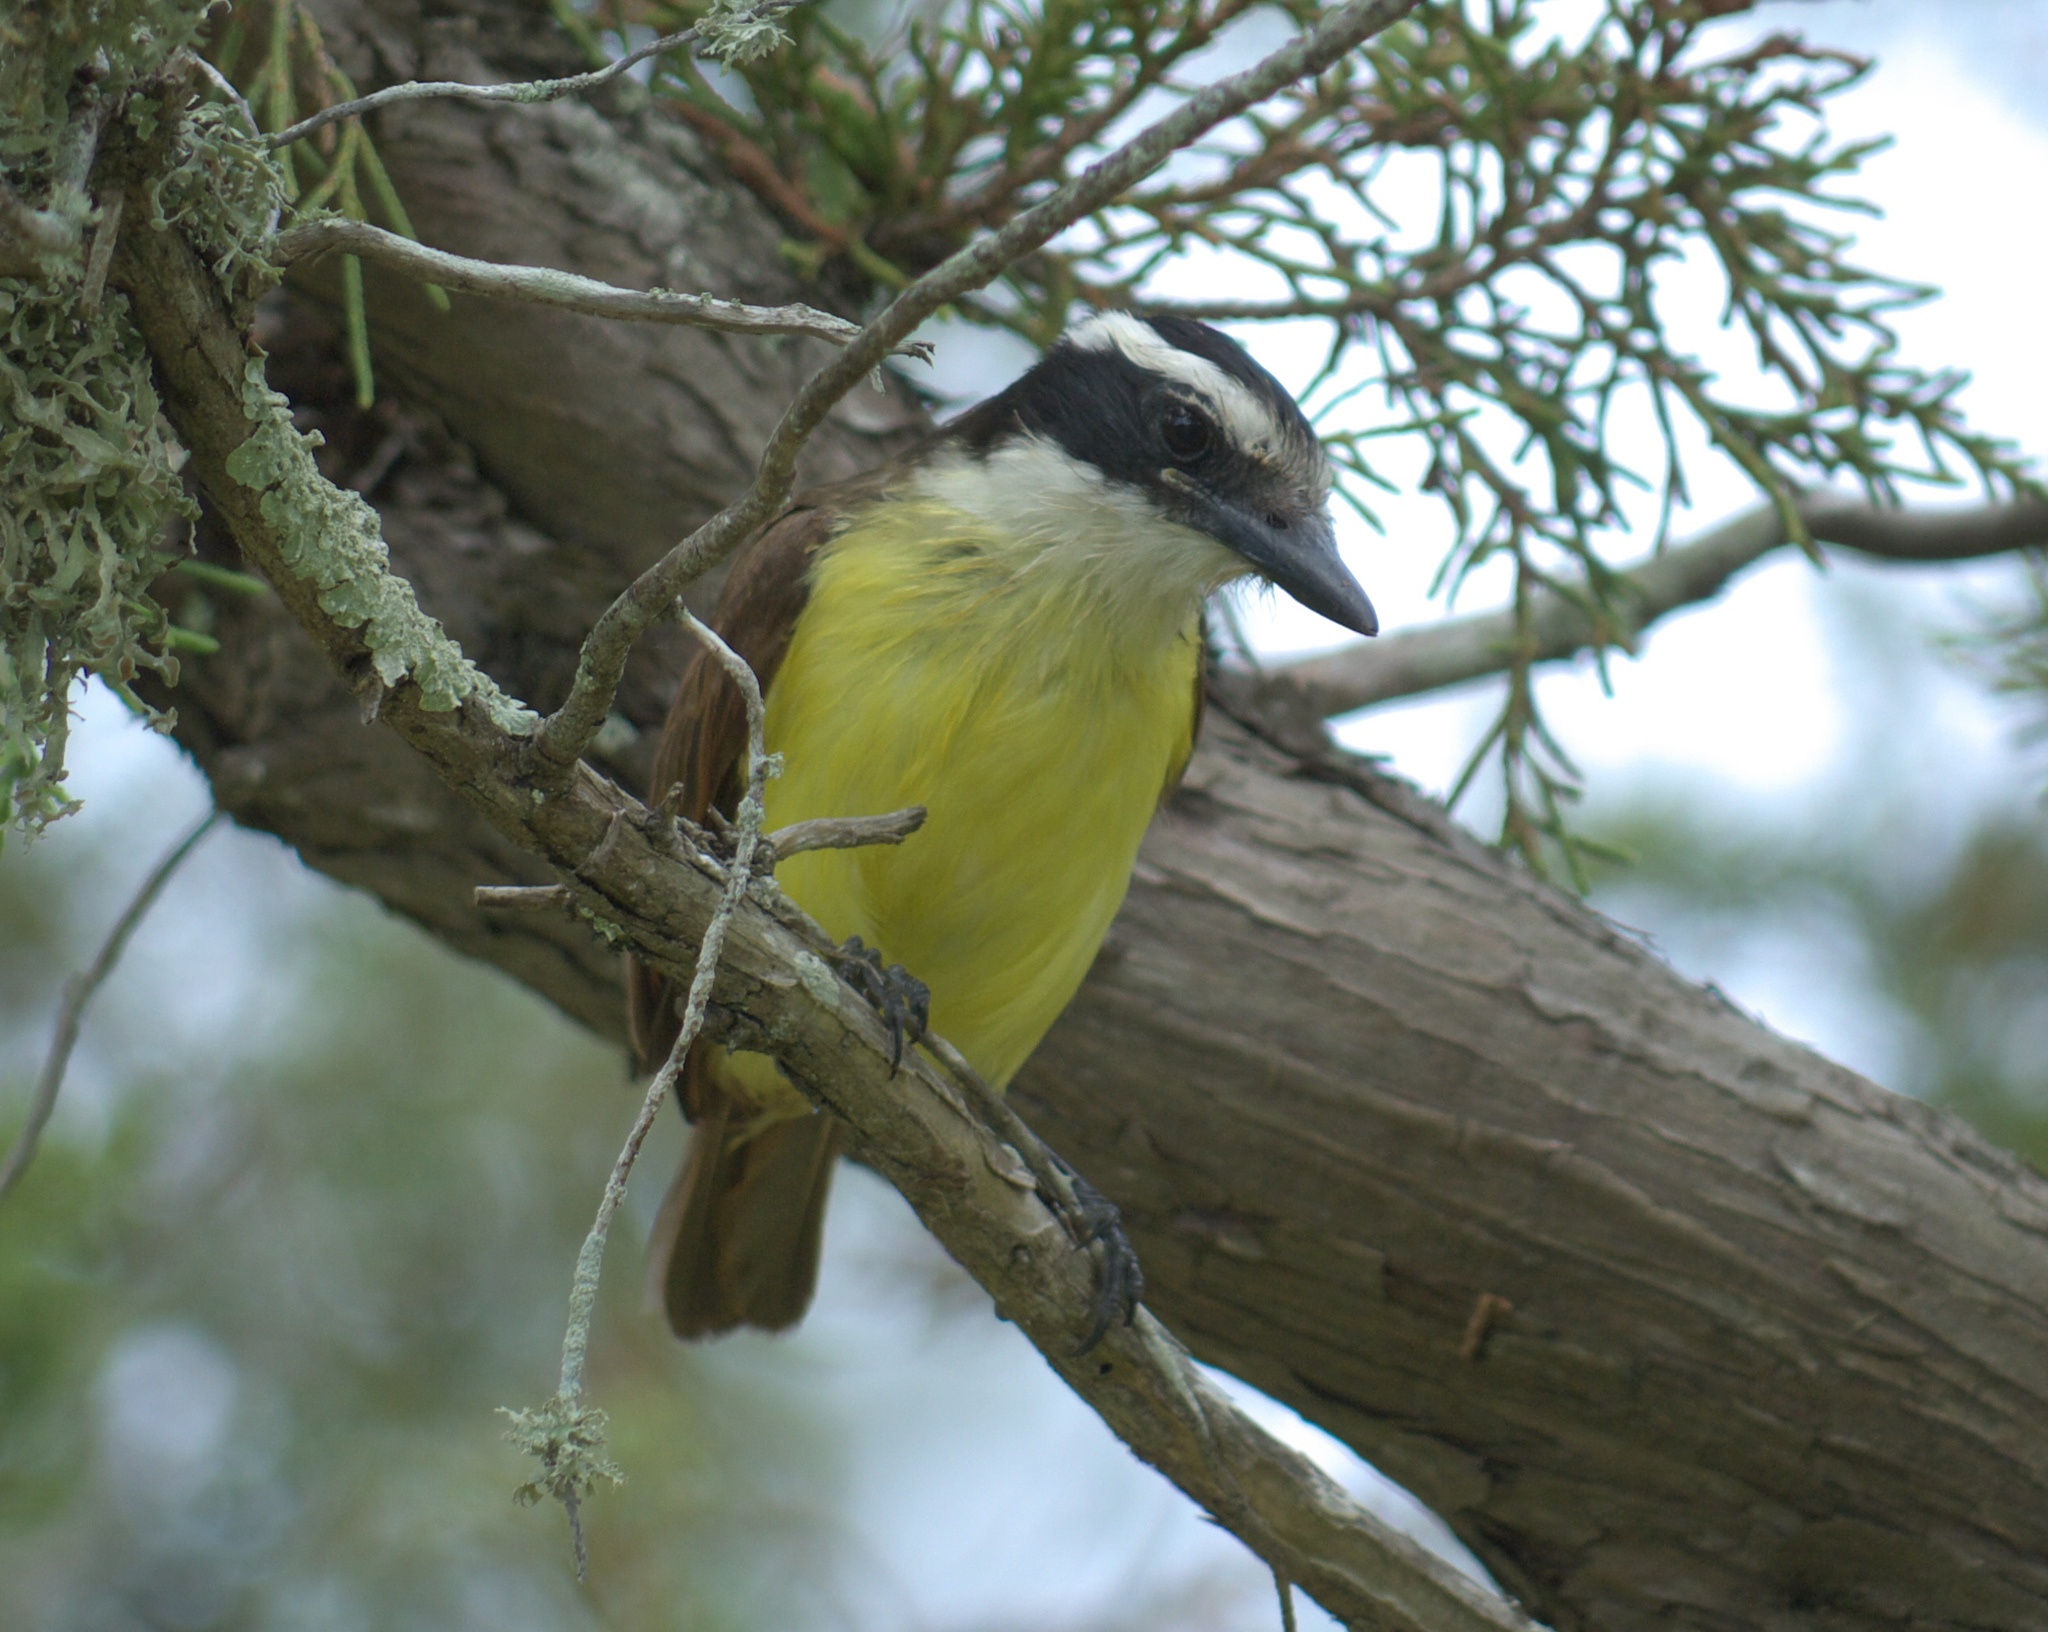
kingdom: Animalia
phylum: Chordata
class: Aves
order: Passeriformes
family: Tyrannidae
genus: Pitangus
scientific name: Pitangus sulphuratus
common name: Great kiskadee
